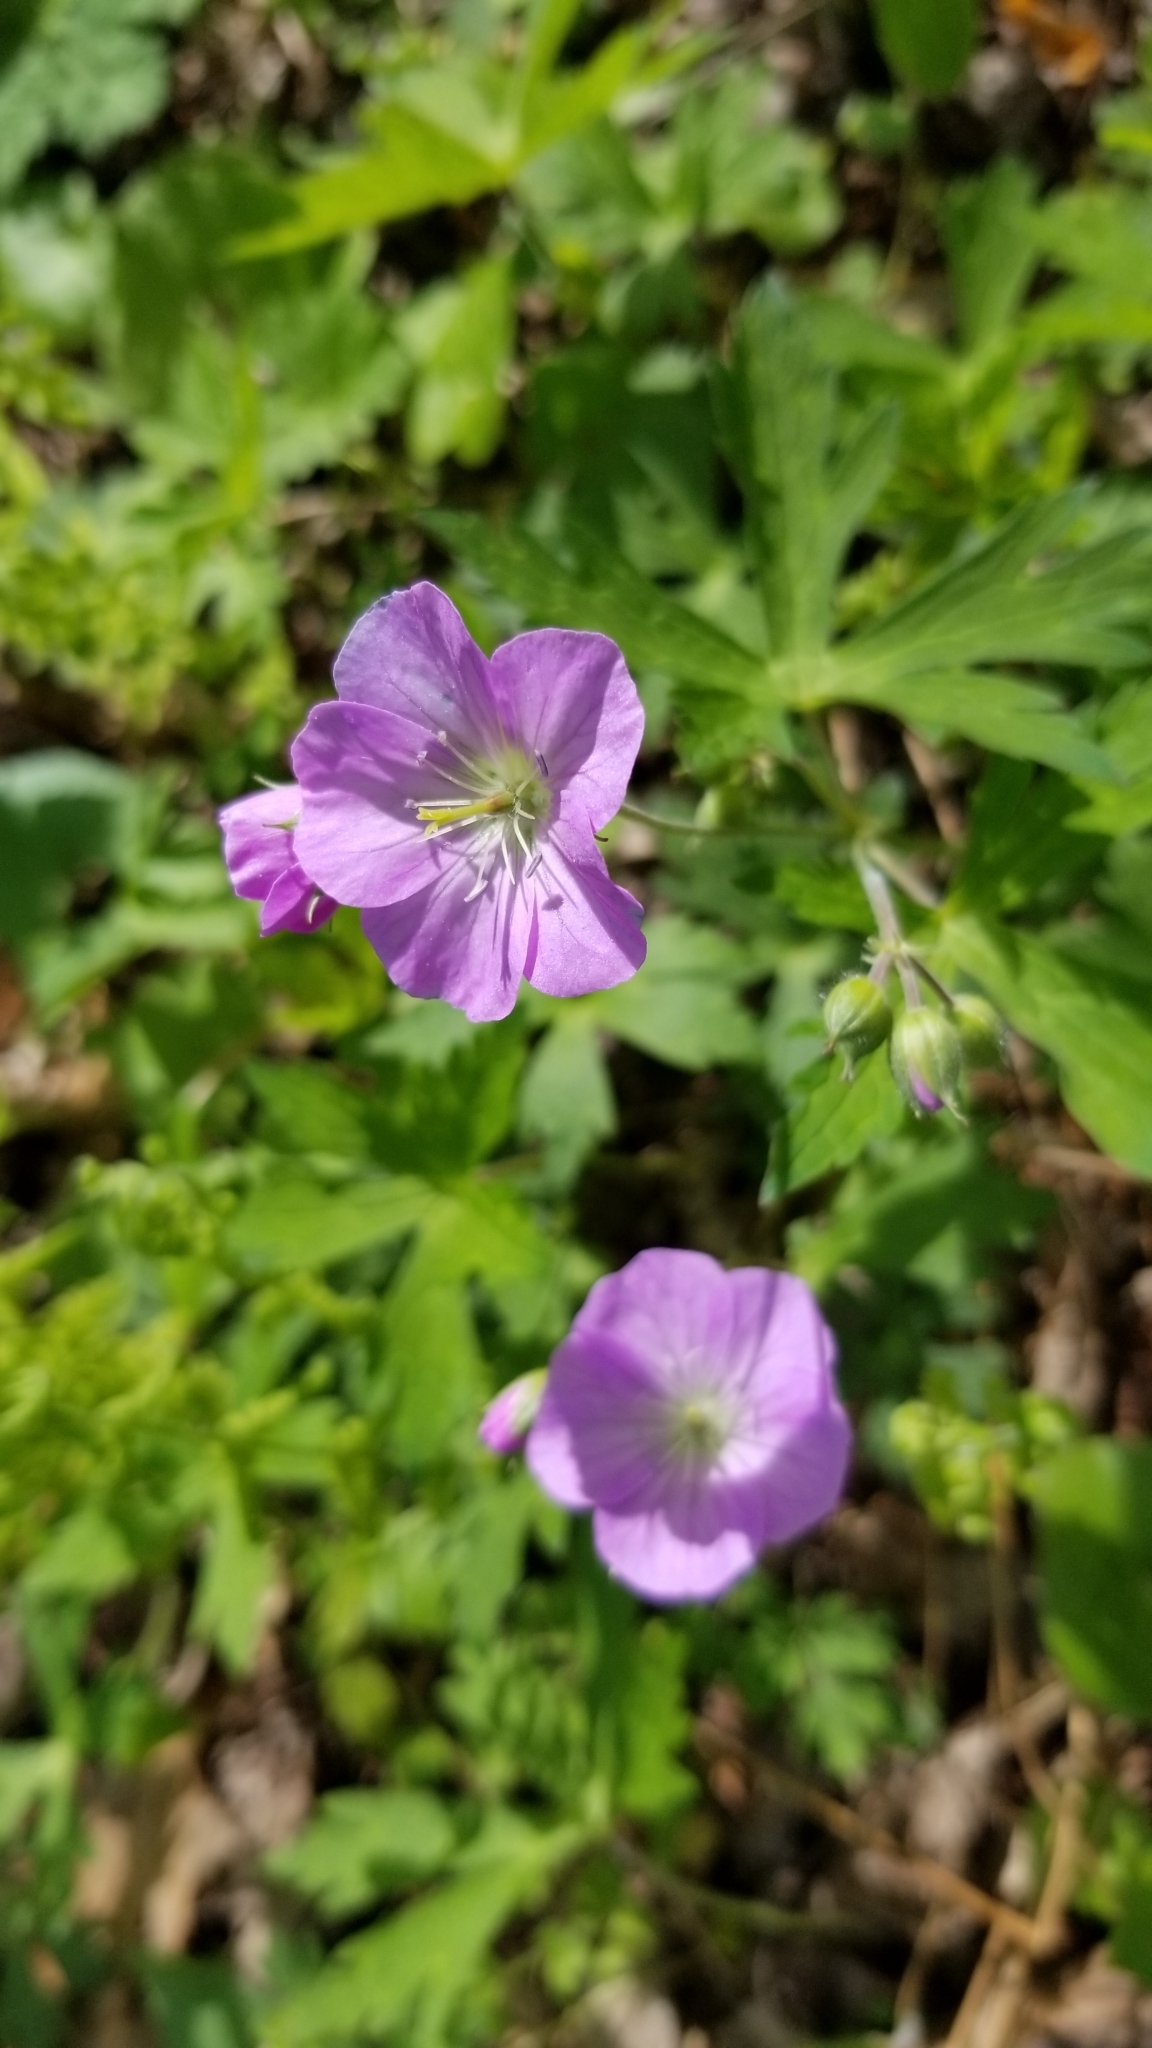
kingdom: Plantae
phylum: Tracheophyta
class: Magnoliopsida
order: Geraniales
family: Geraniaceae
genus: Geranium
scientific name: Geranium maculatum
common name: Spotted geranium
